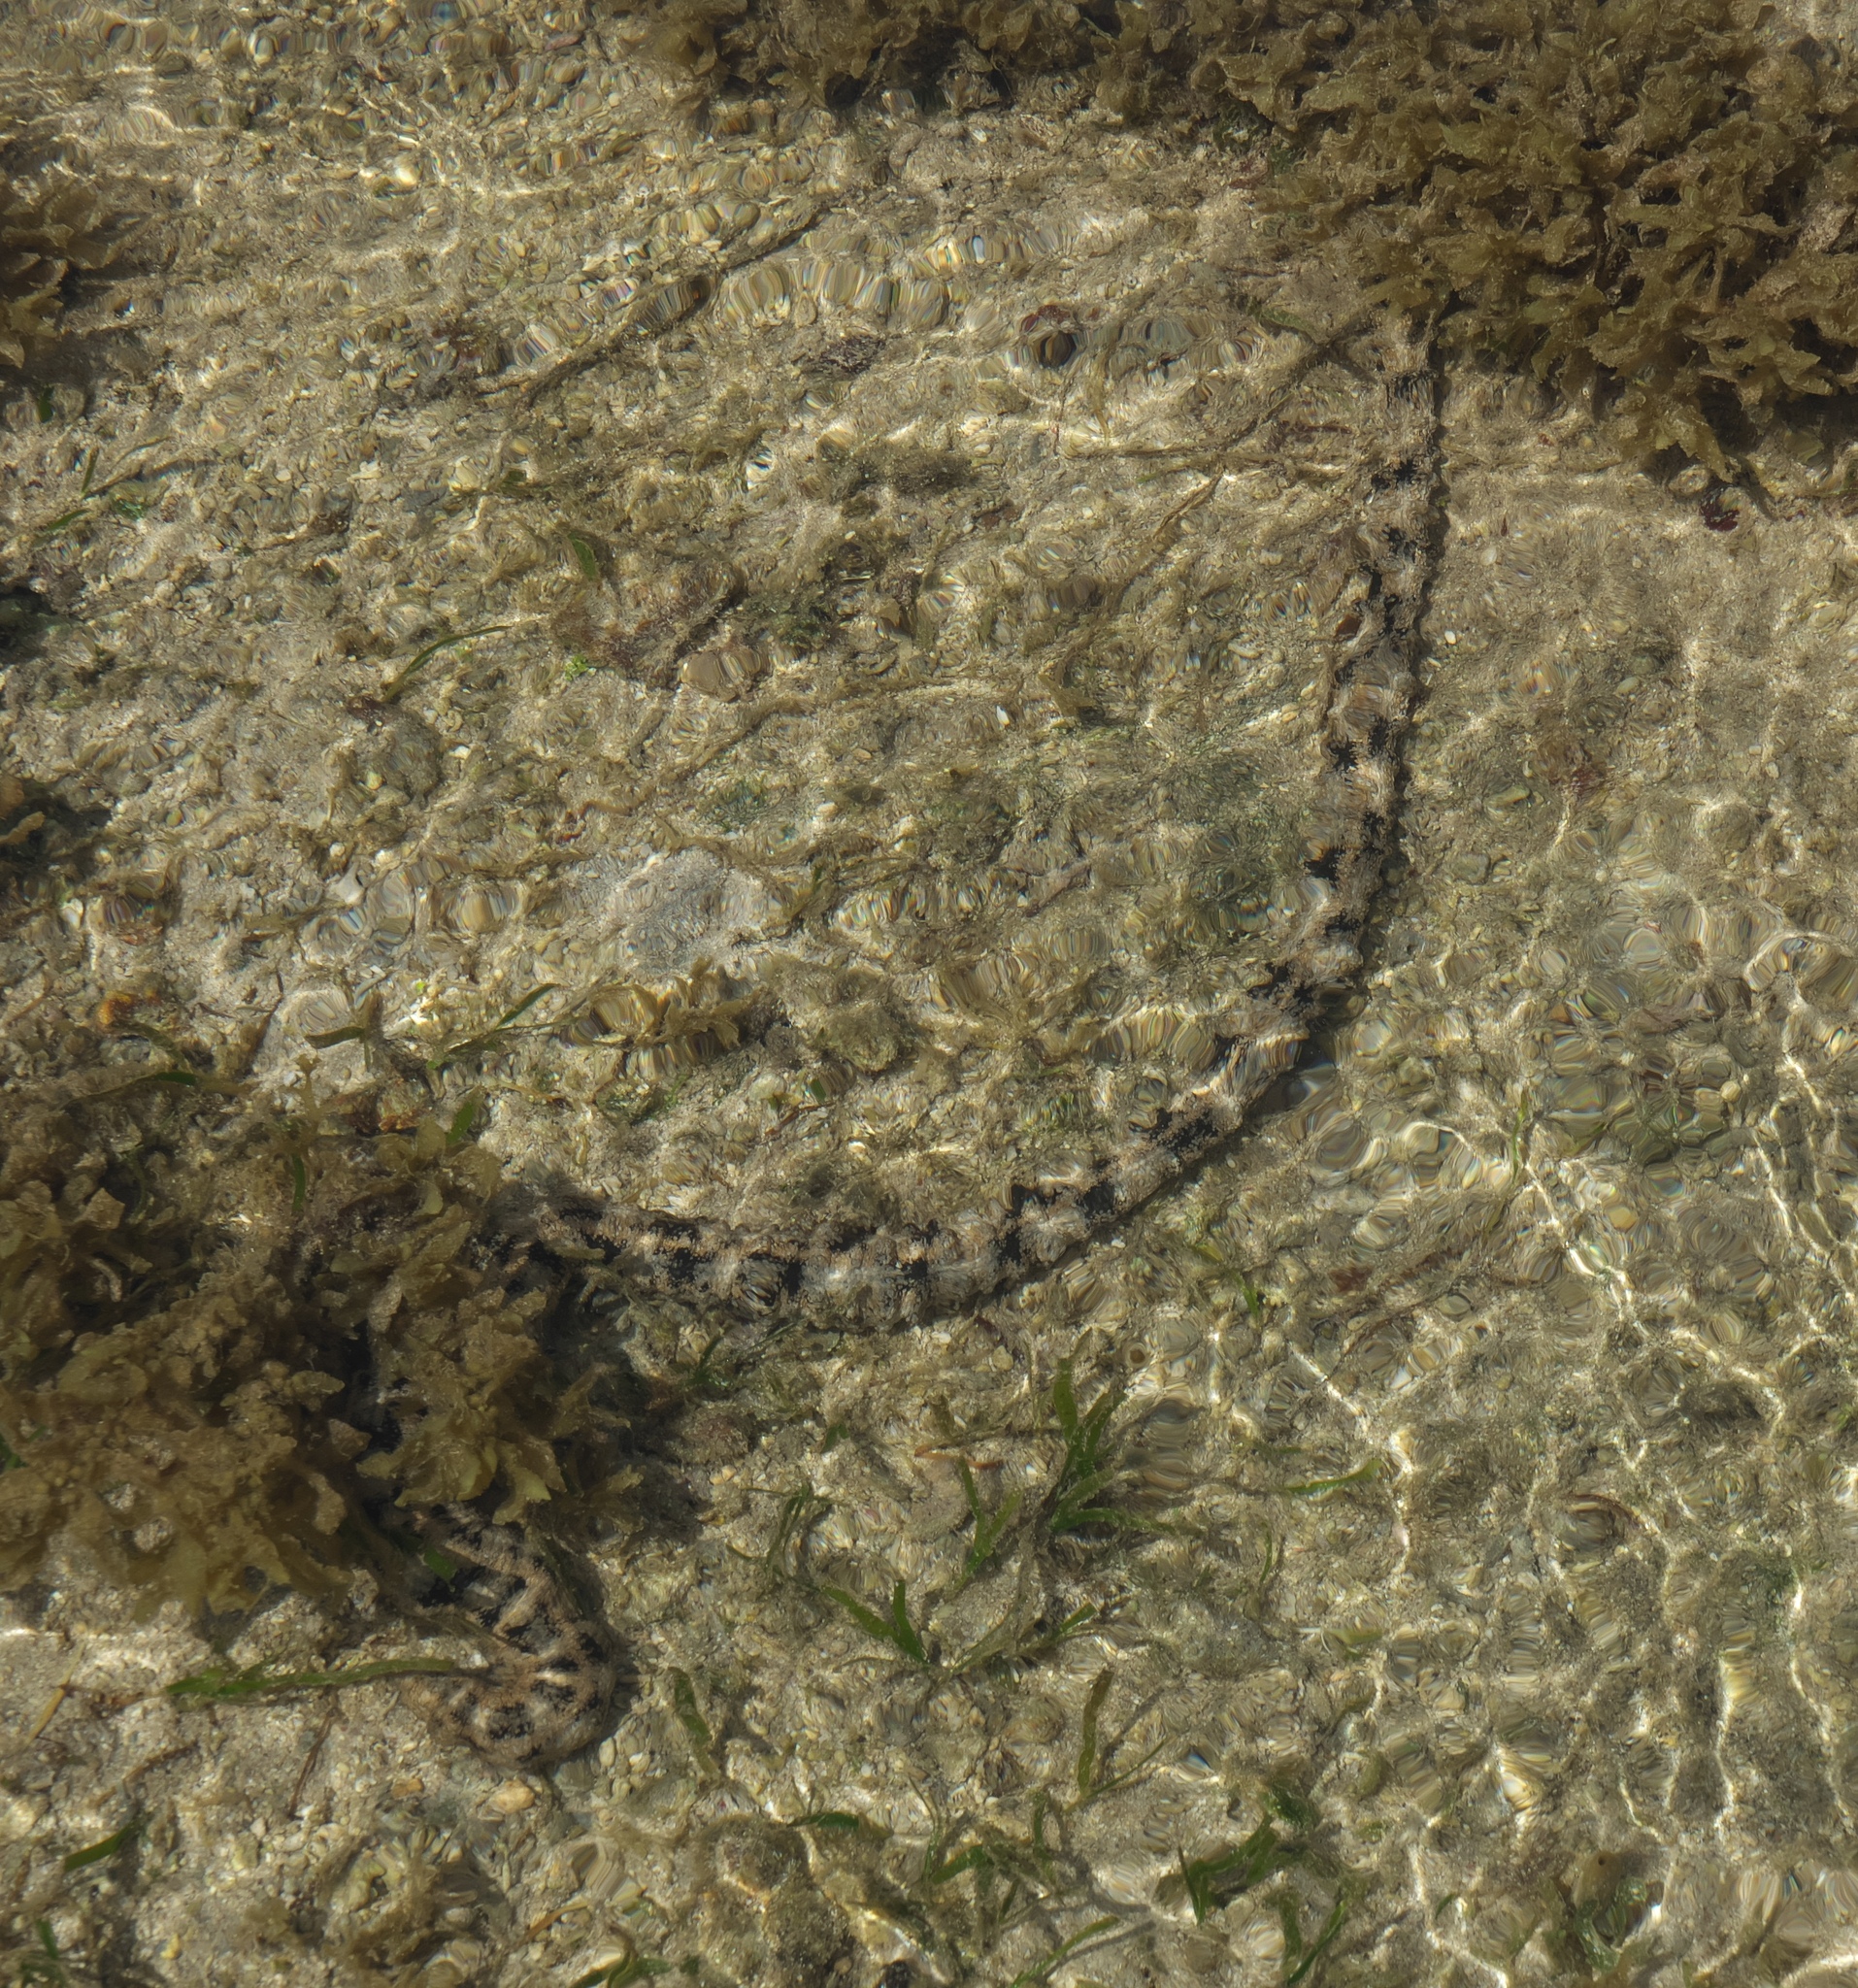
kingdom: Animalia
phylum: Echinodermata
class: Holothuroidea
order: Apodida
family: Synaptidae
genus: Synapta
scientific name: Synapta maculata
